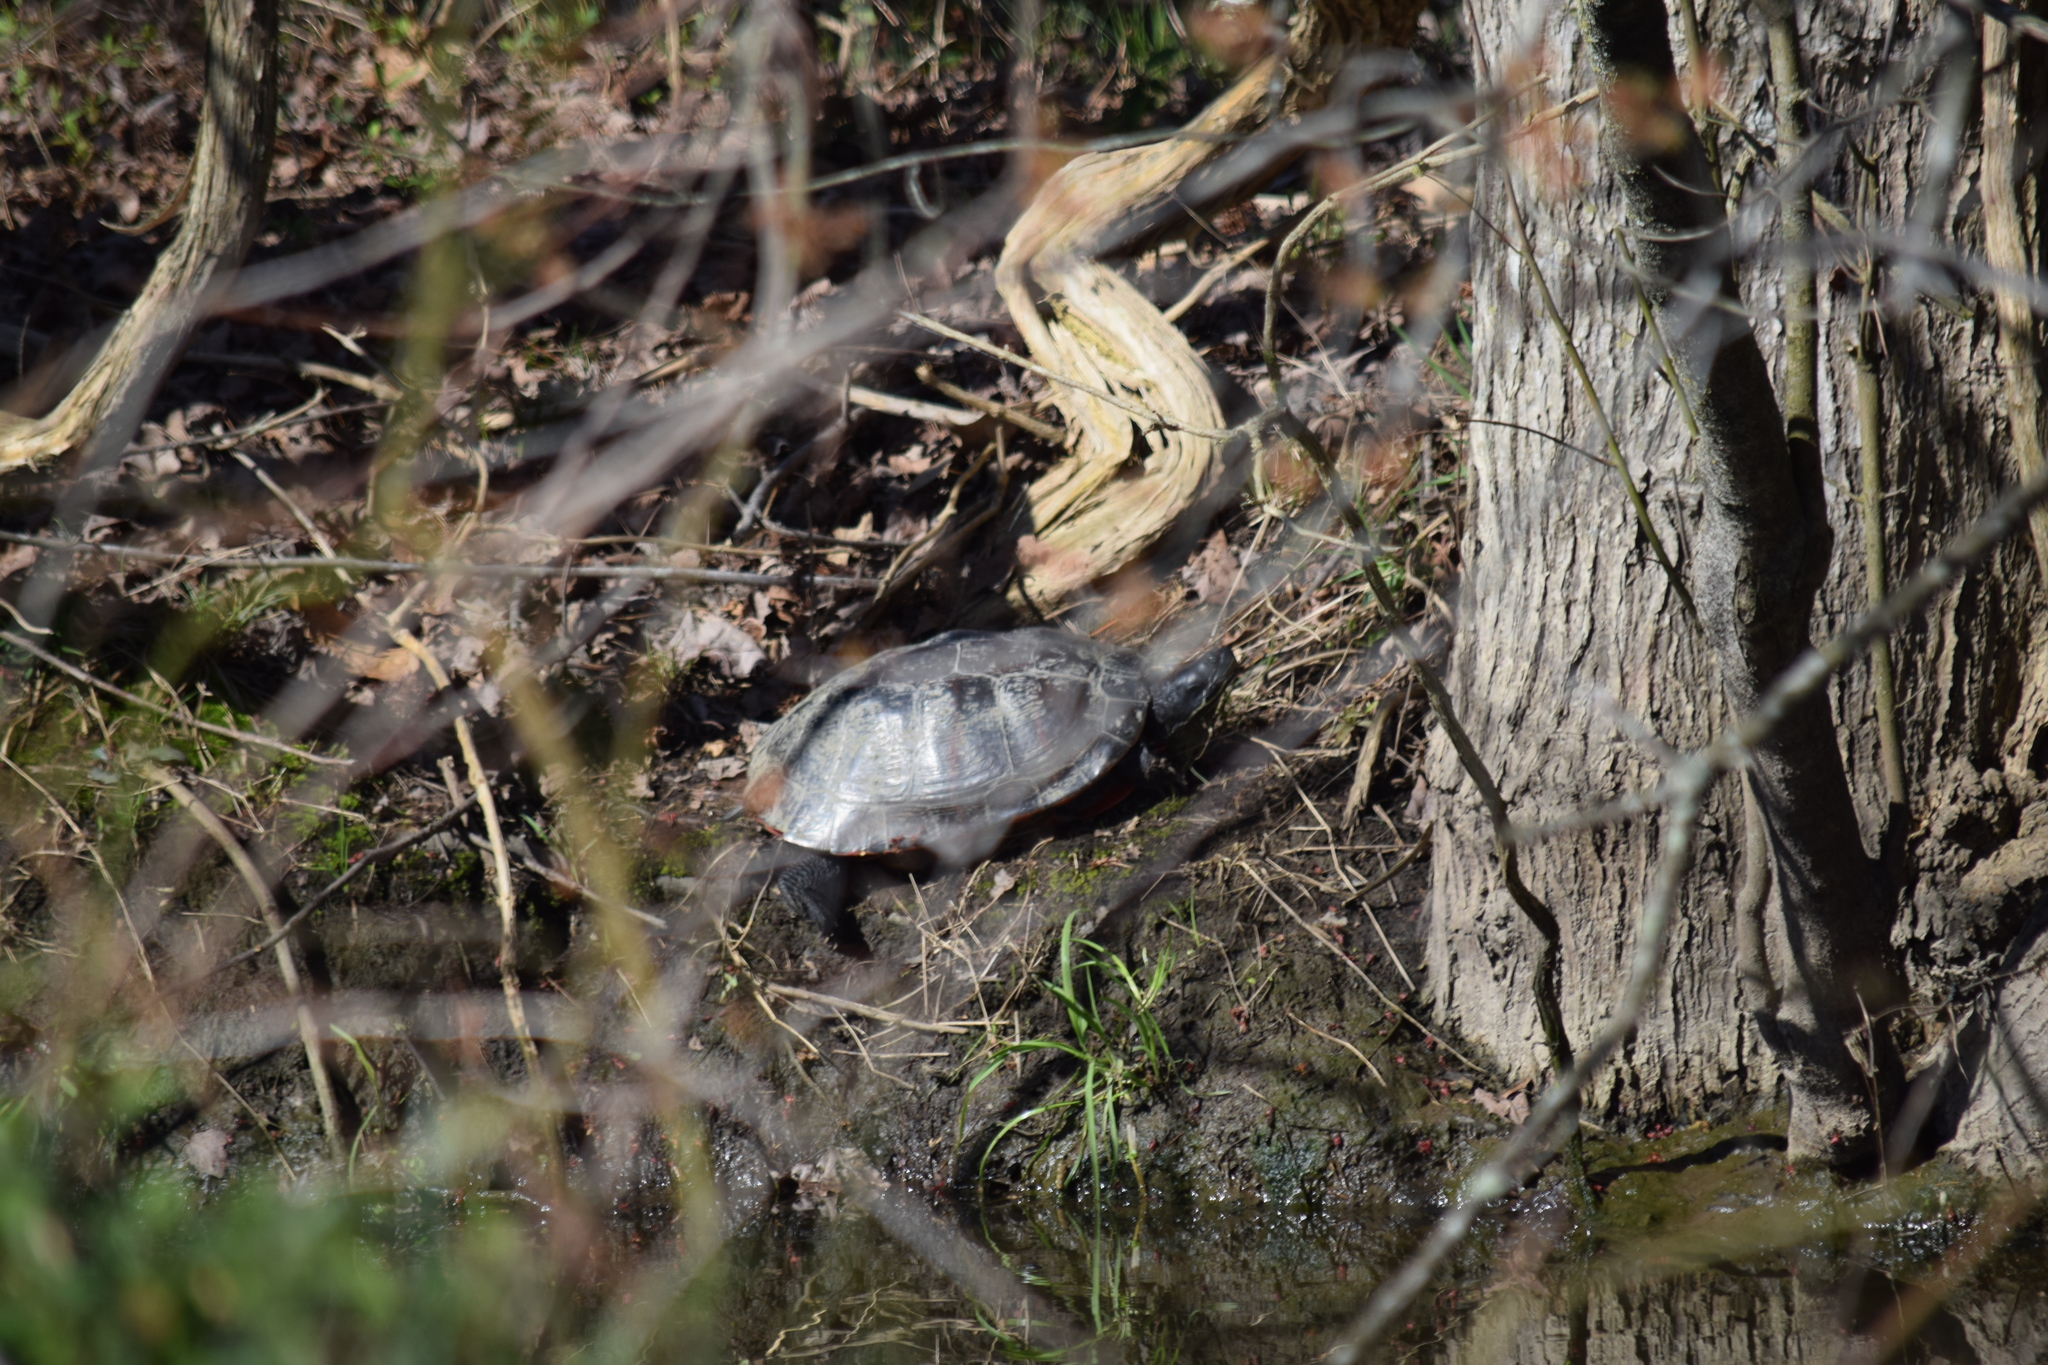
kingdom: Animalia
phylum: Chordata
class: Testudines
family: Emydidae
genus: Pseudemys
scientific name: Pseudemys rubriventris
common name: American red-bellied turtle
